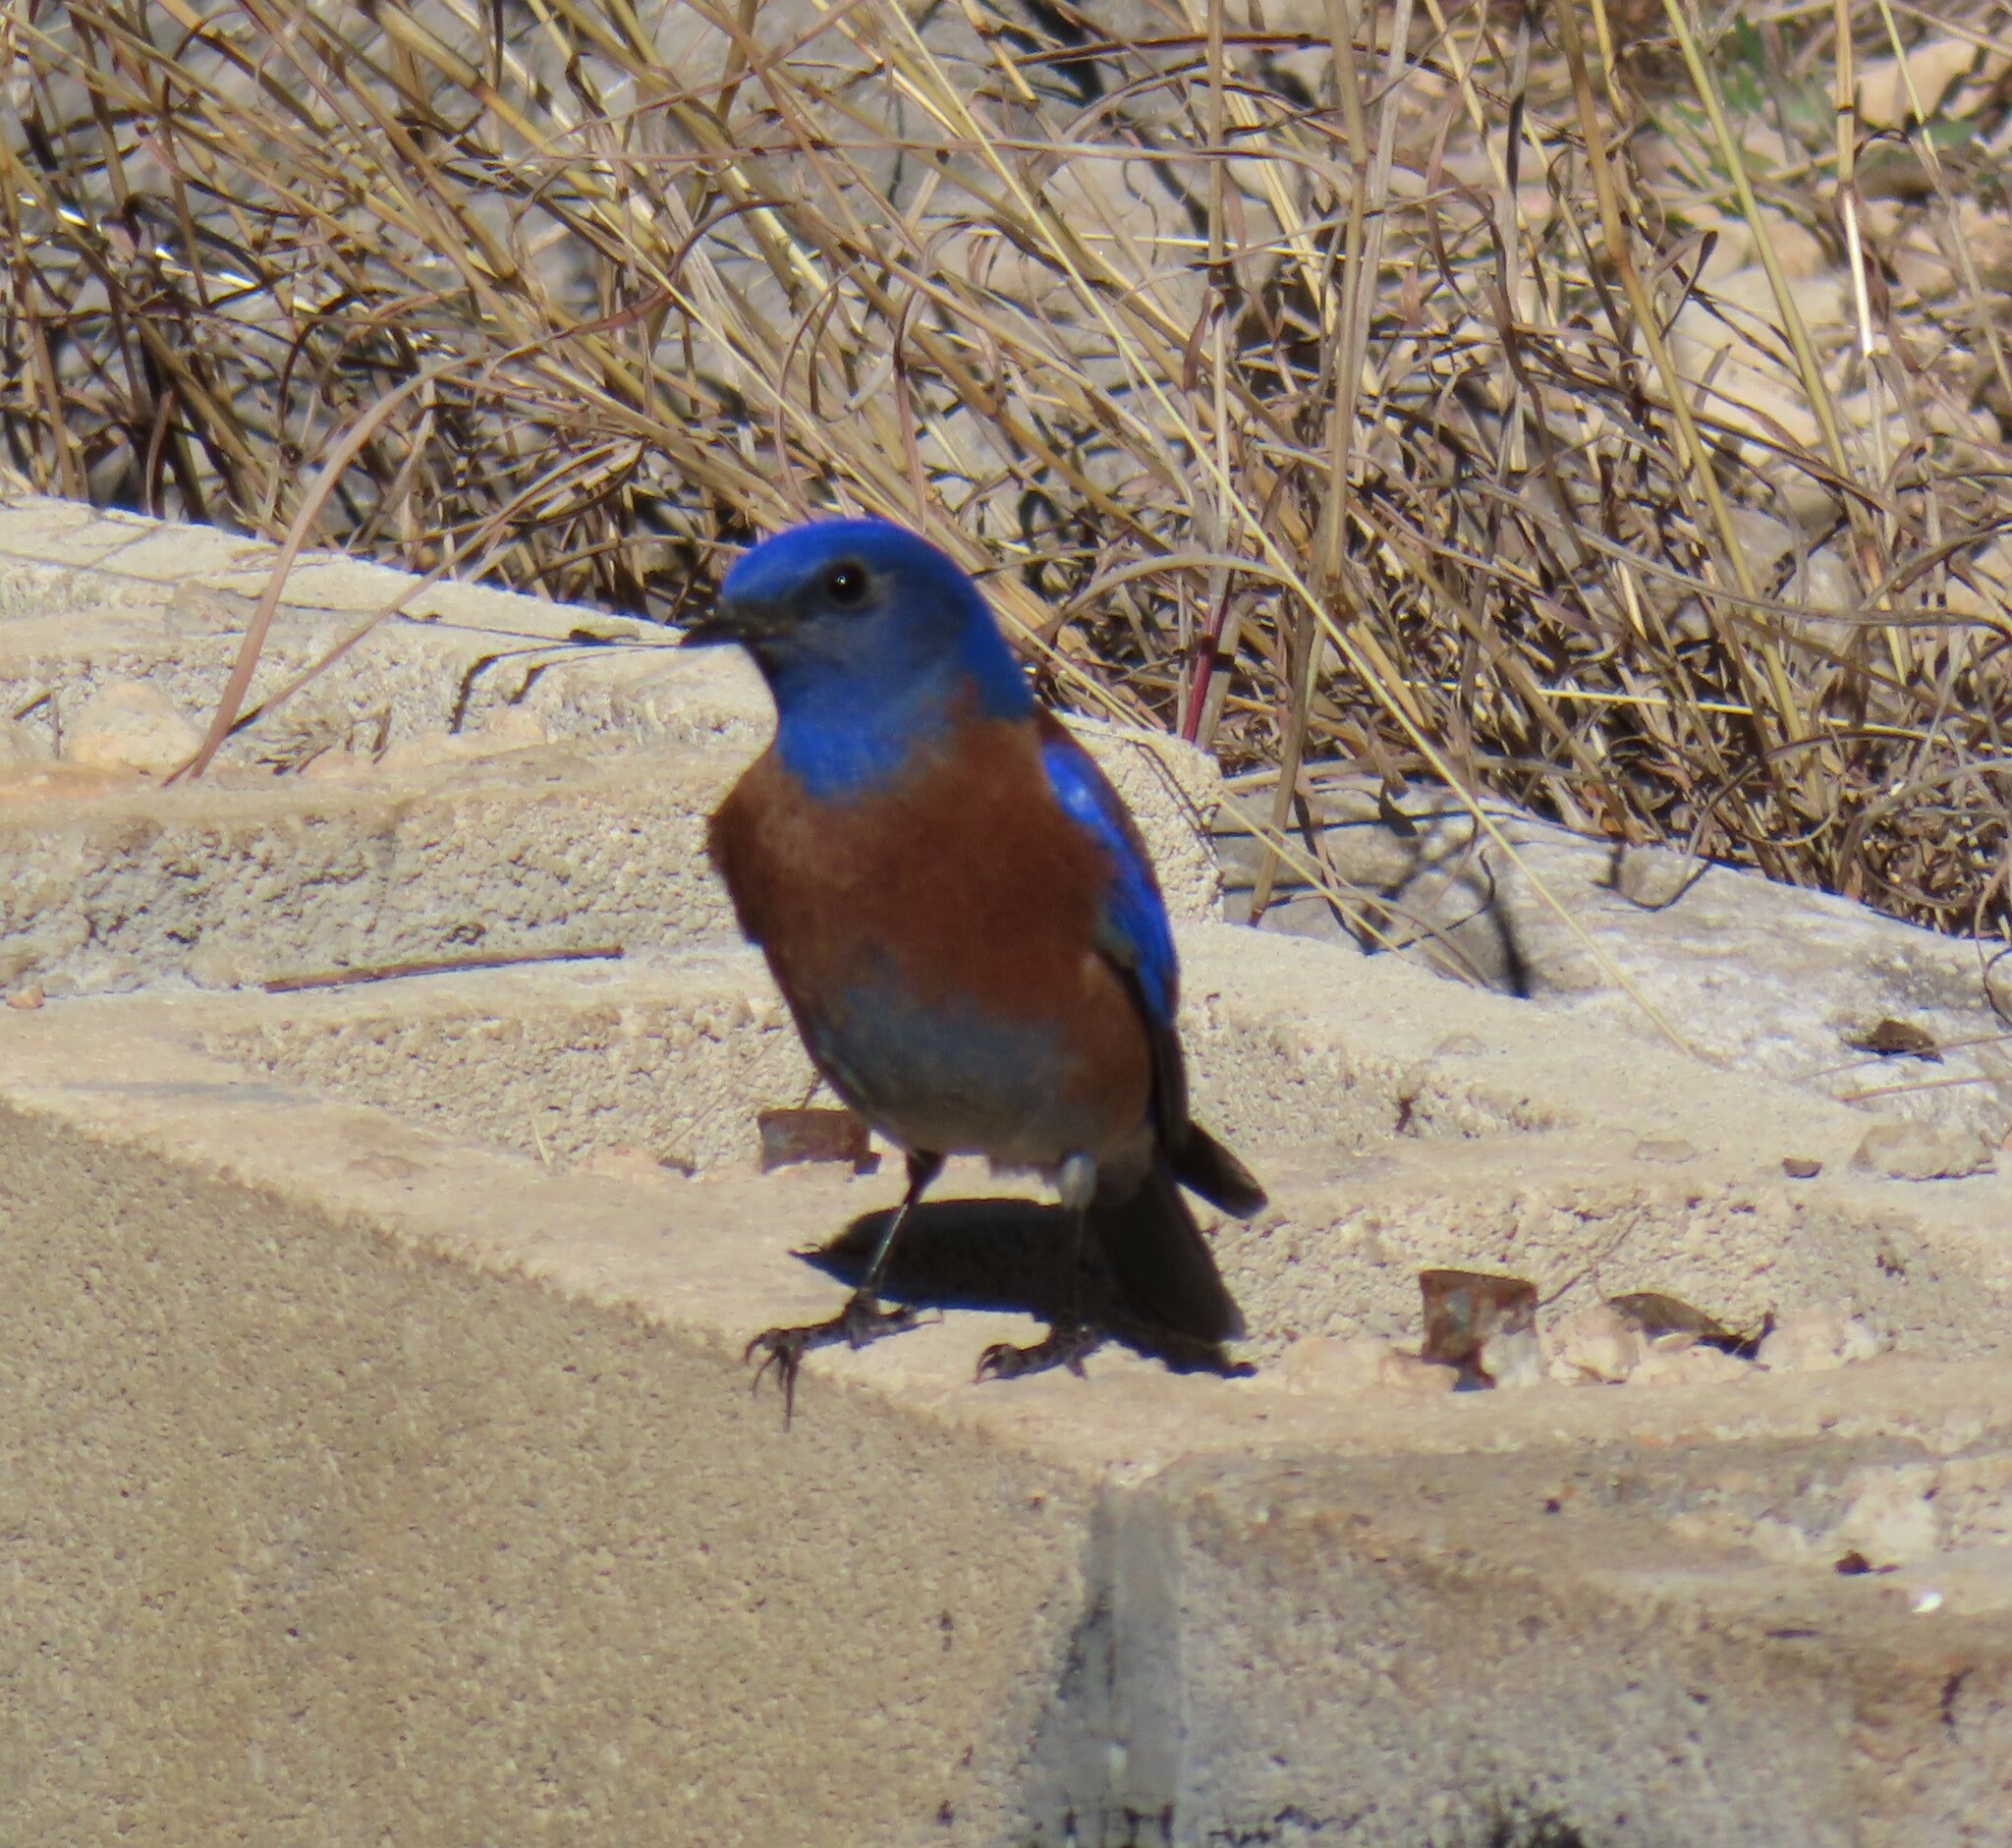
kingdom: Animalia
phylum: Chordata
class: Aves
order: Passeriformes
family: Turdidae
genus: Sialia
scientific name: Sialia mexicana
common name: Western bluebird
